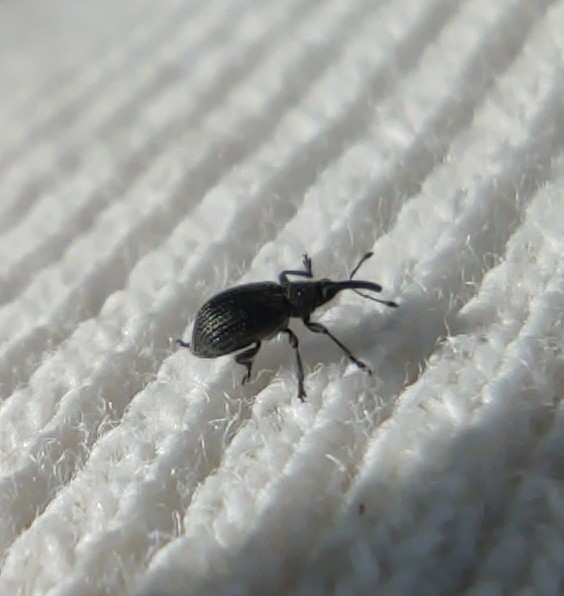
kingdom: Animalia
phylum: Arthropoda
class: Insecta
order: Coleoptera
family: Brentidae
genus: Betulapion
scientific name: Betulapion simile
